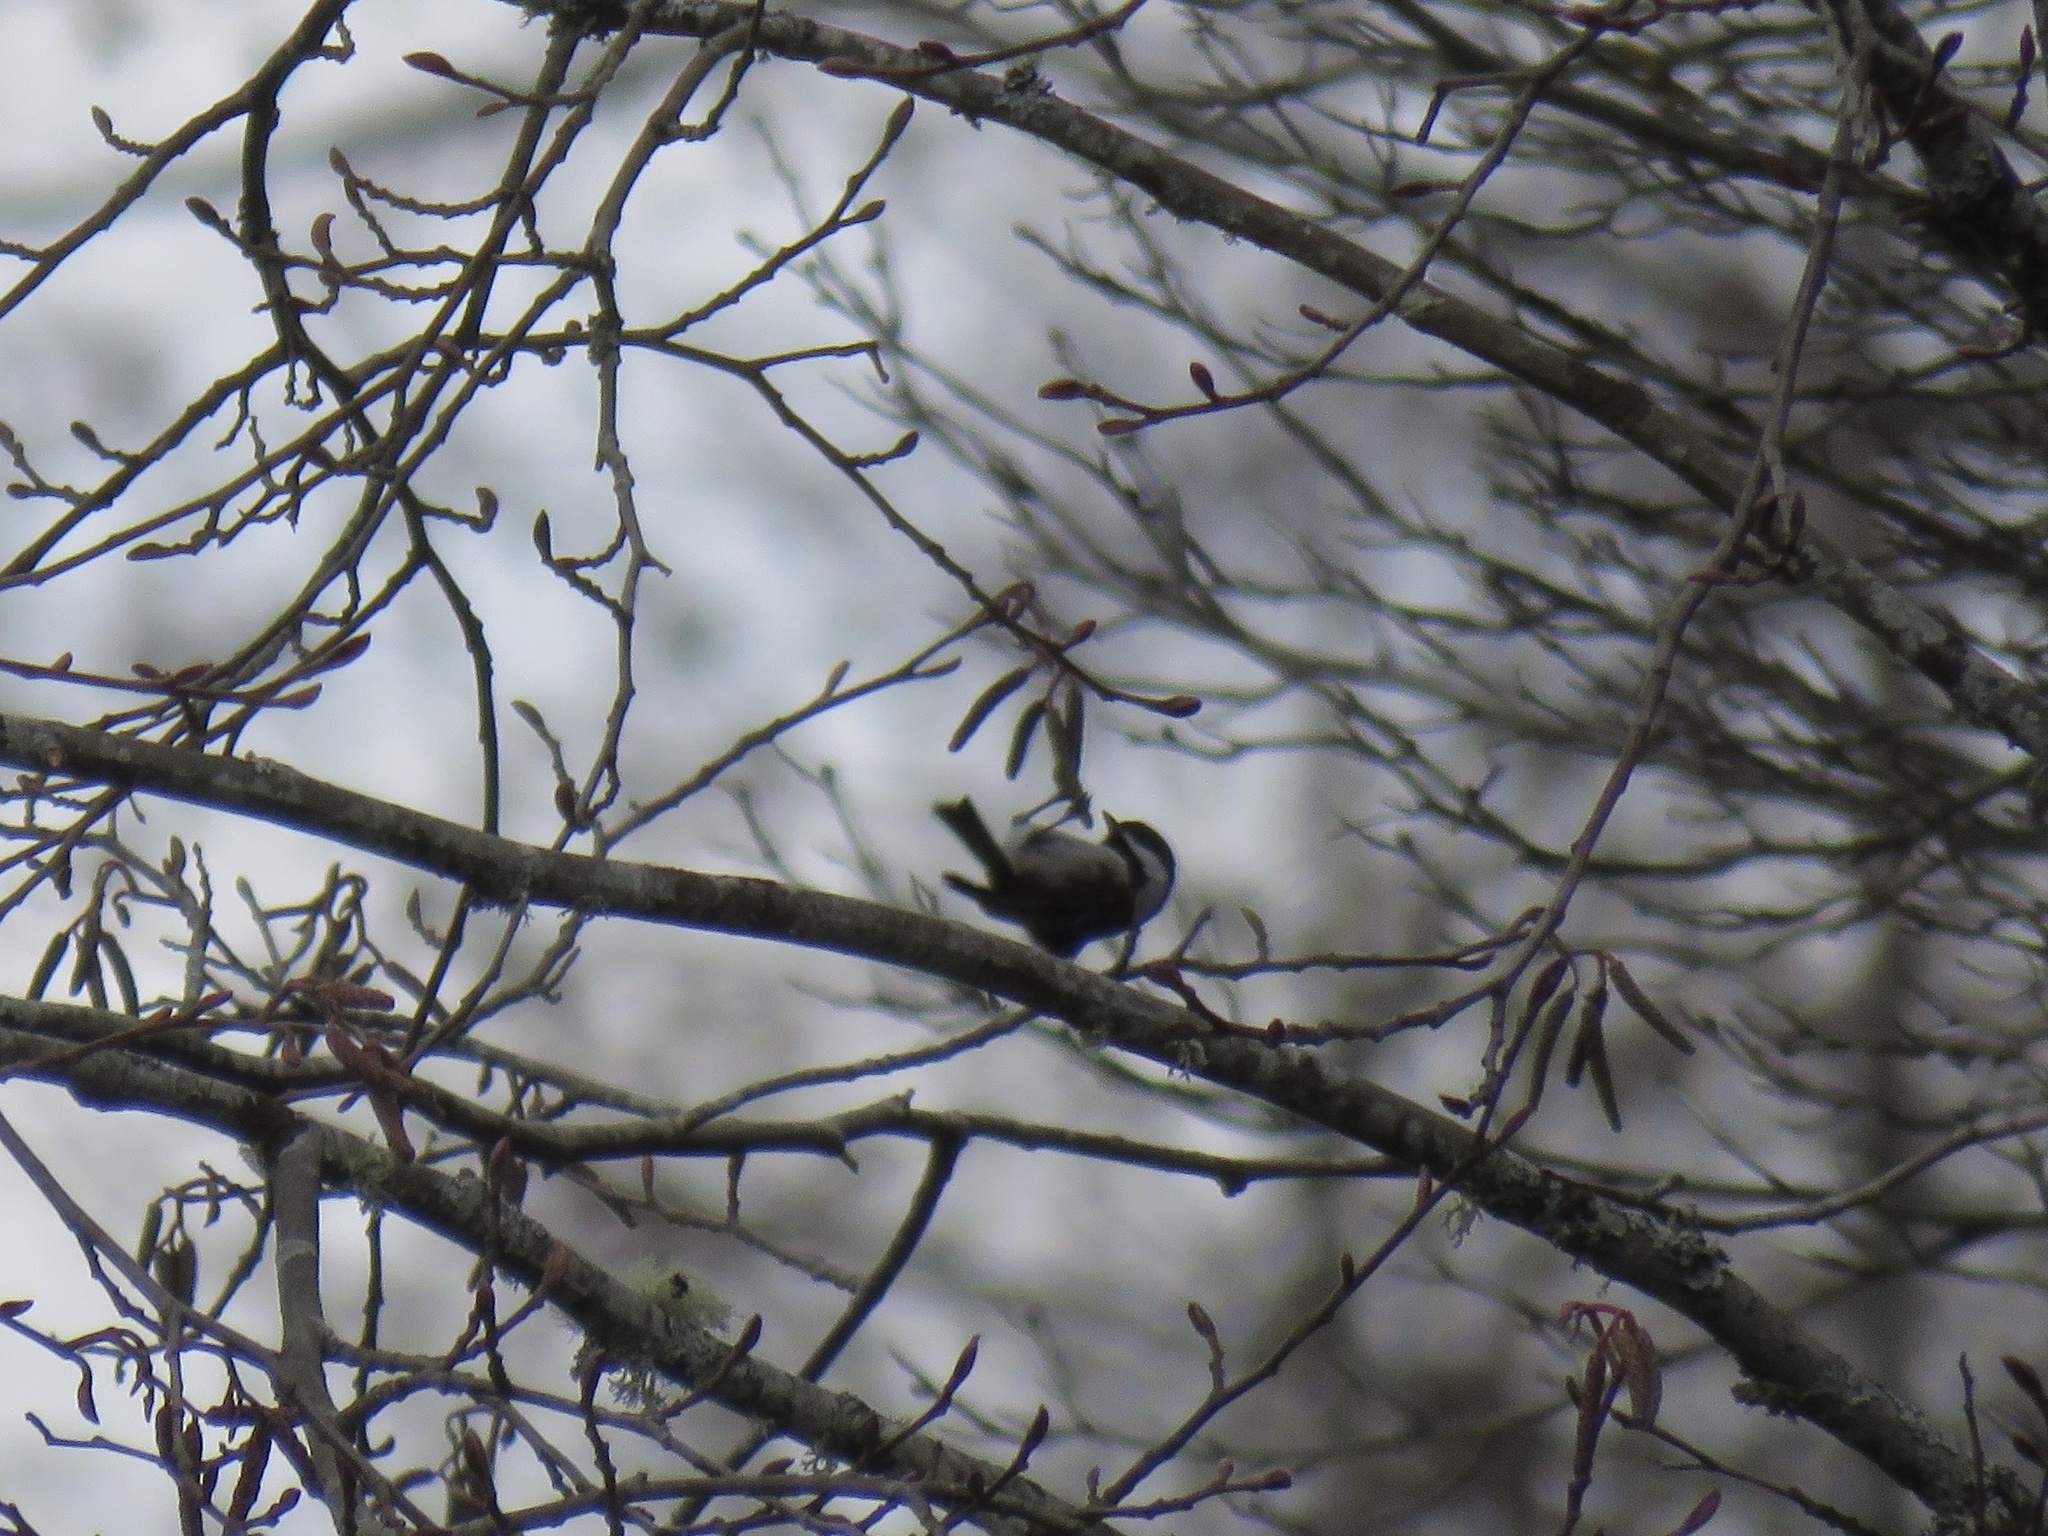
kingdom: Animalia
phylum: Chordata
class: Aves
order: Passeriformes
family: Paridae
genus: Poecile
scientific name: Poecile rufescens
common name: Chestnut-backed chickadee
